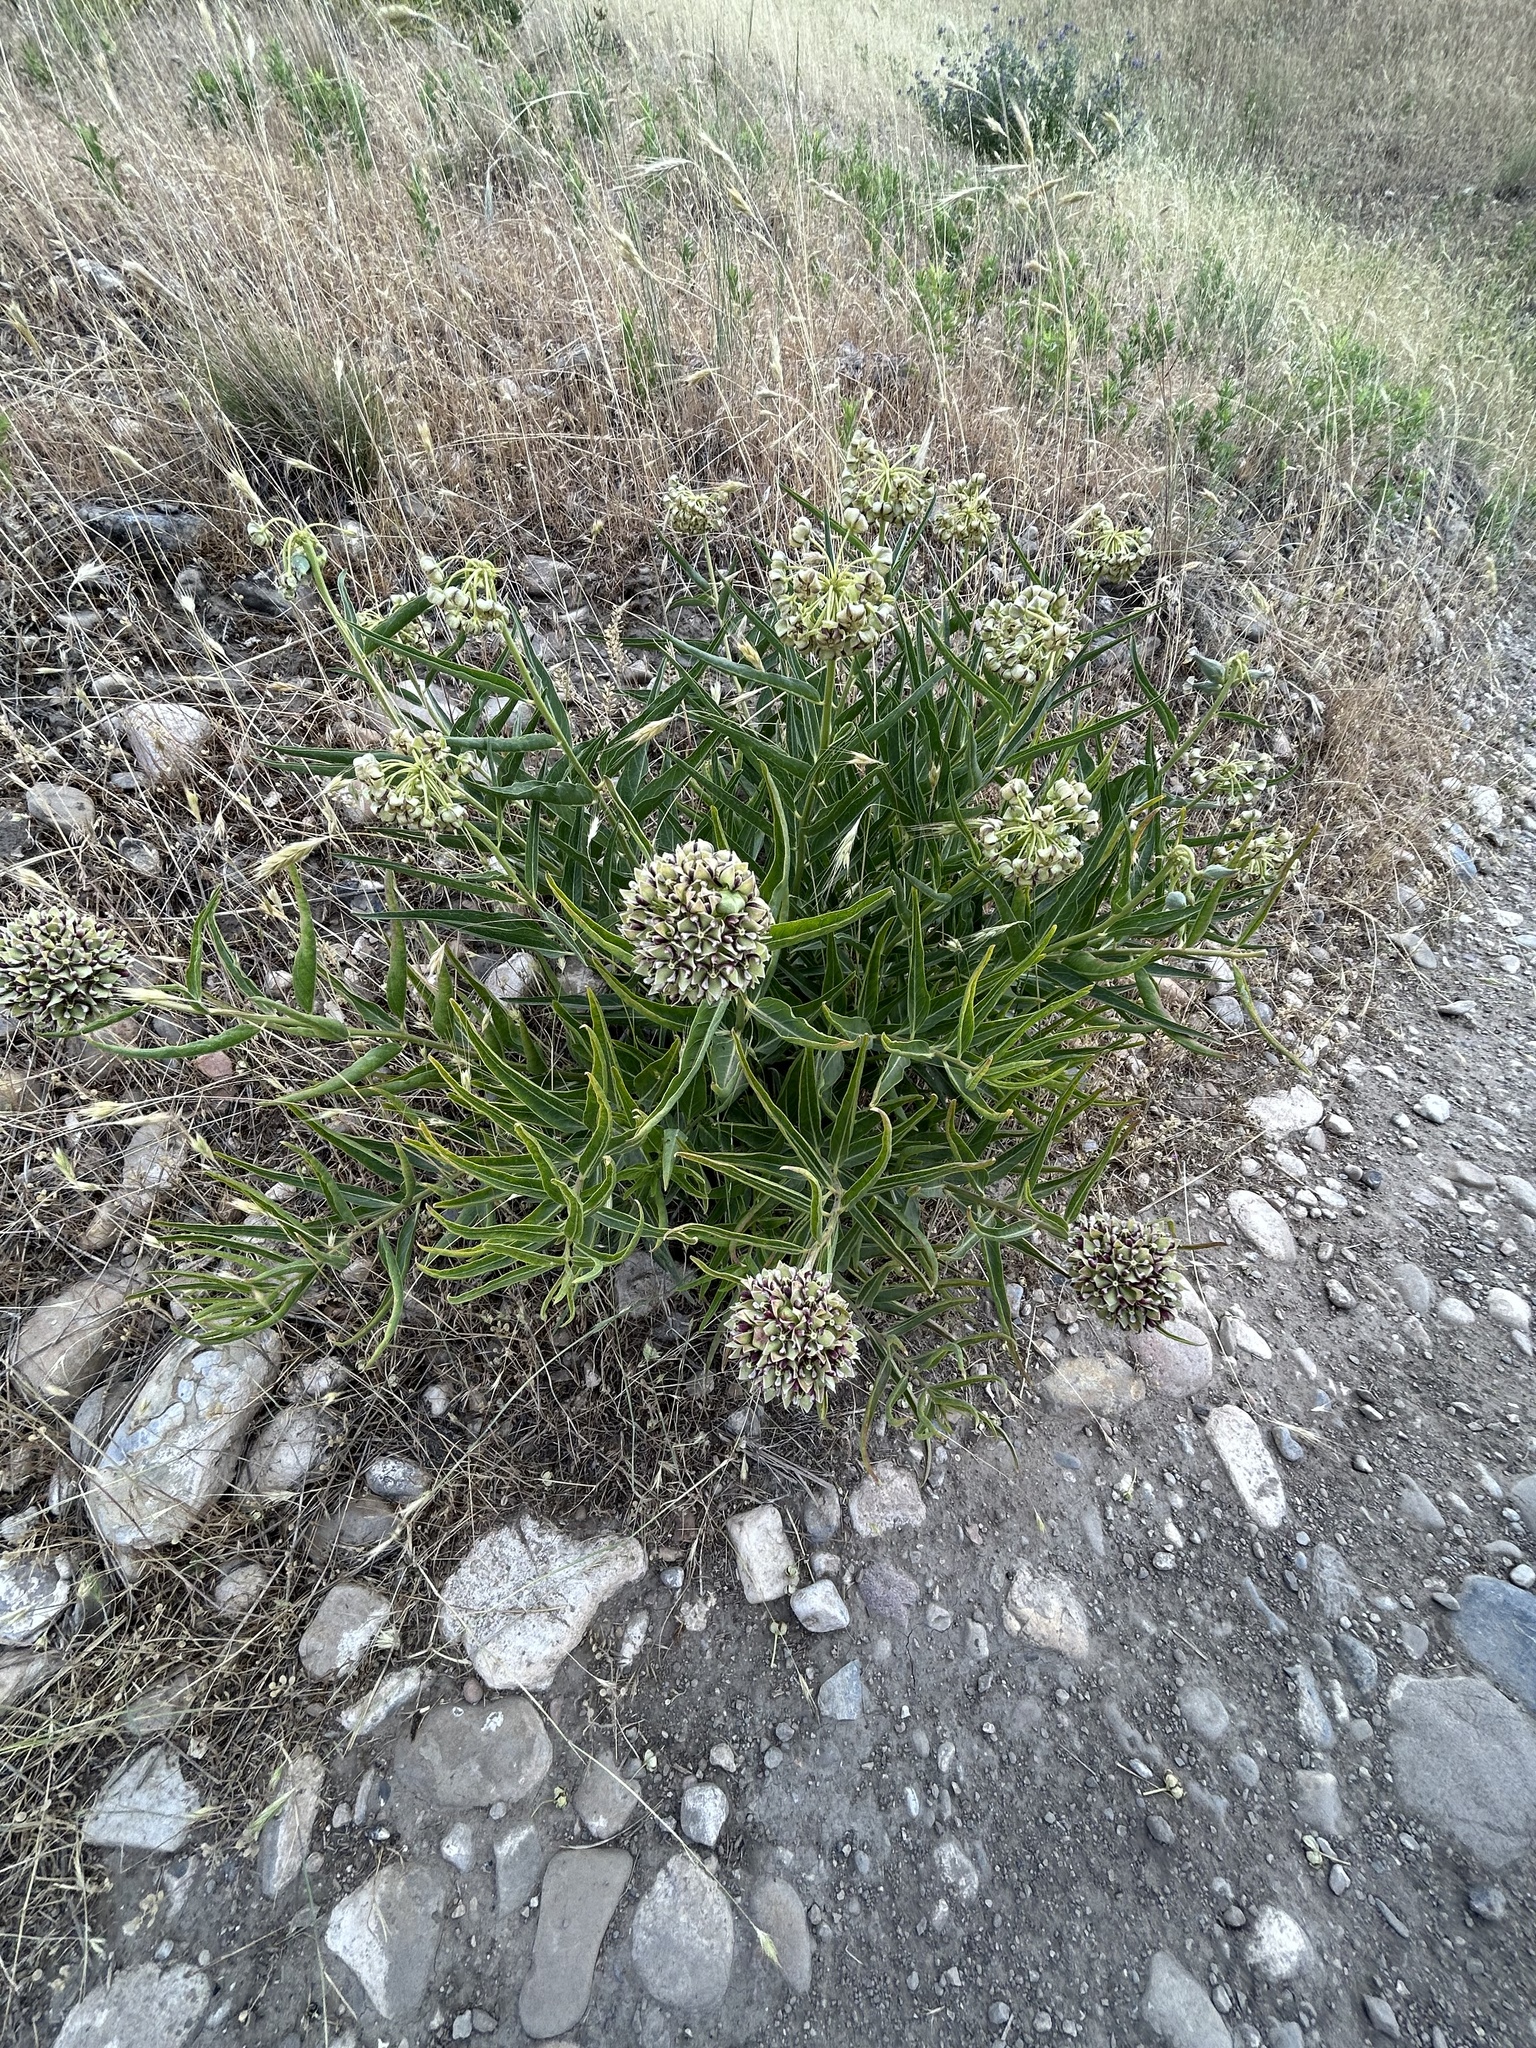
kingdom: Plantae
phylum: Tracheophyta
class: Magnoliopsida
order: Gentianales
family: Apocynaceae
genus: Asclepias
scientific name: Asclepias asperula
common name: Antelope horns
